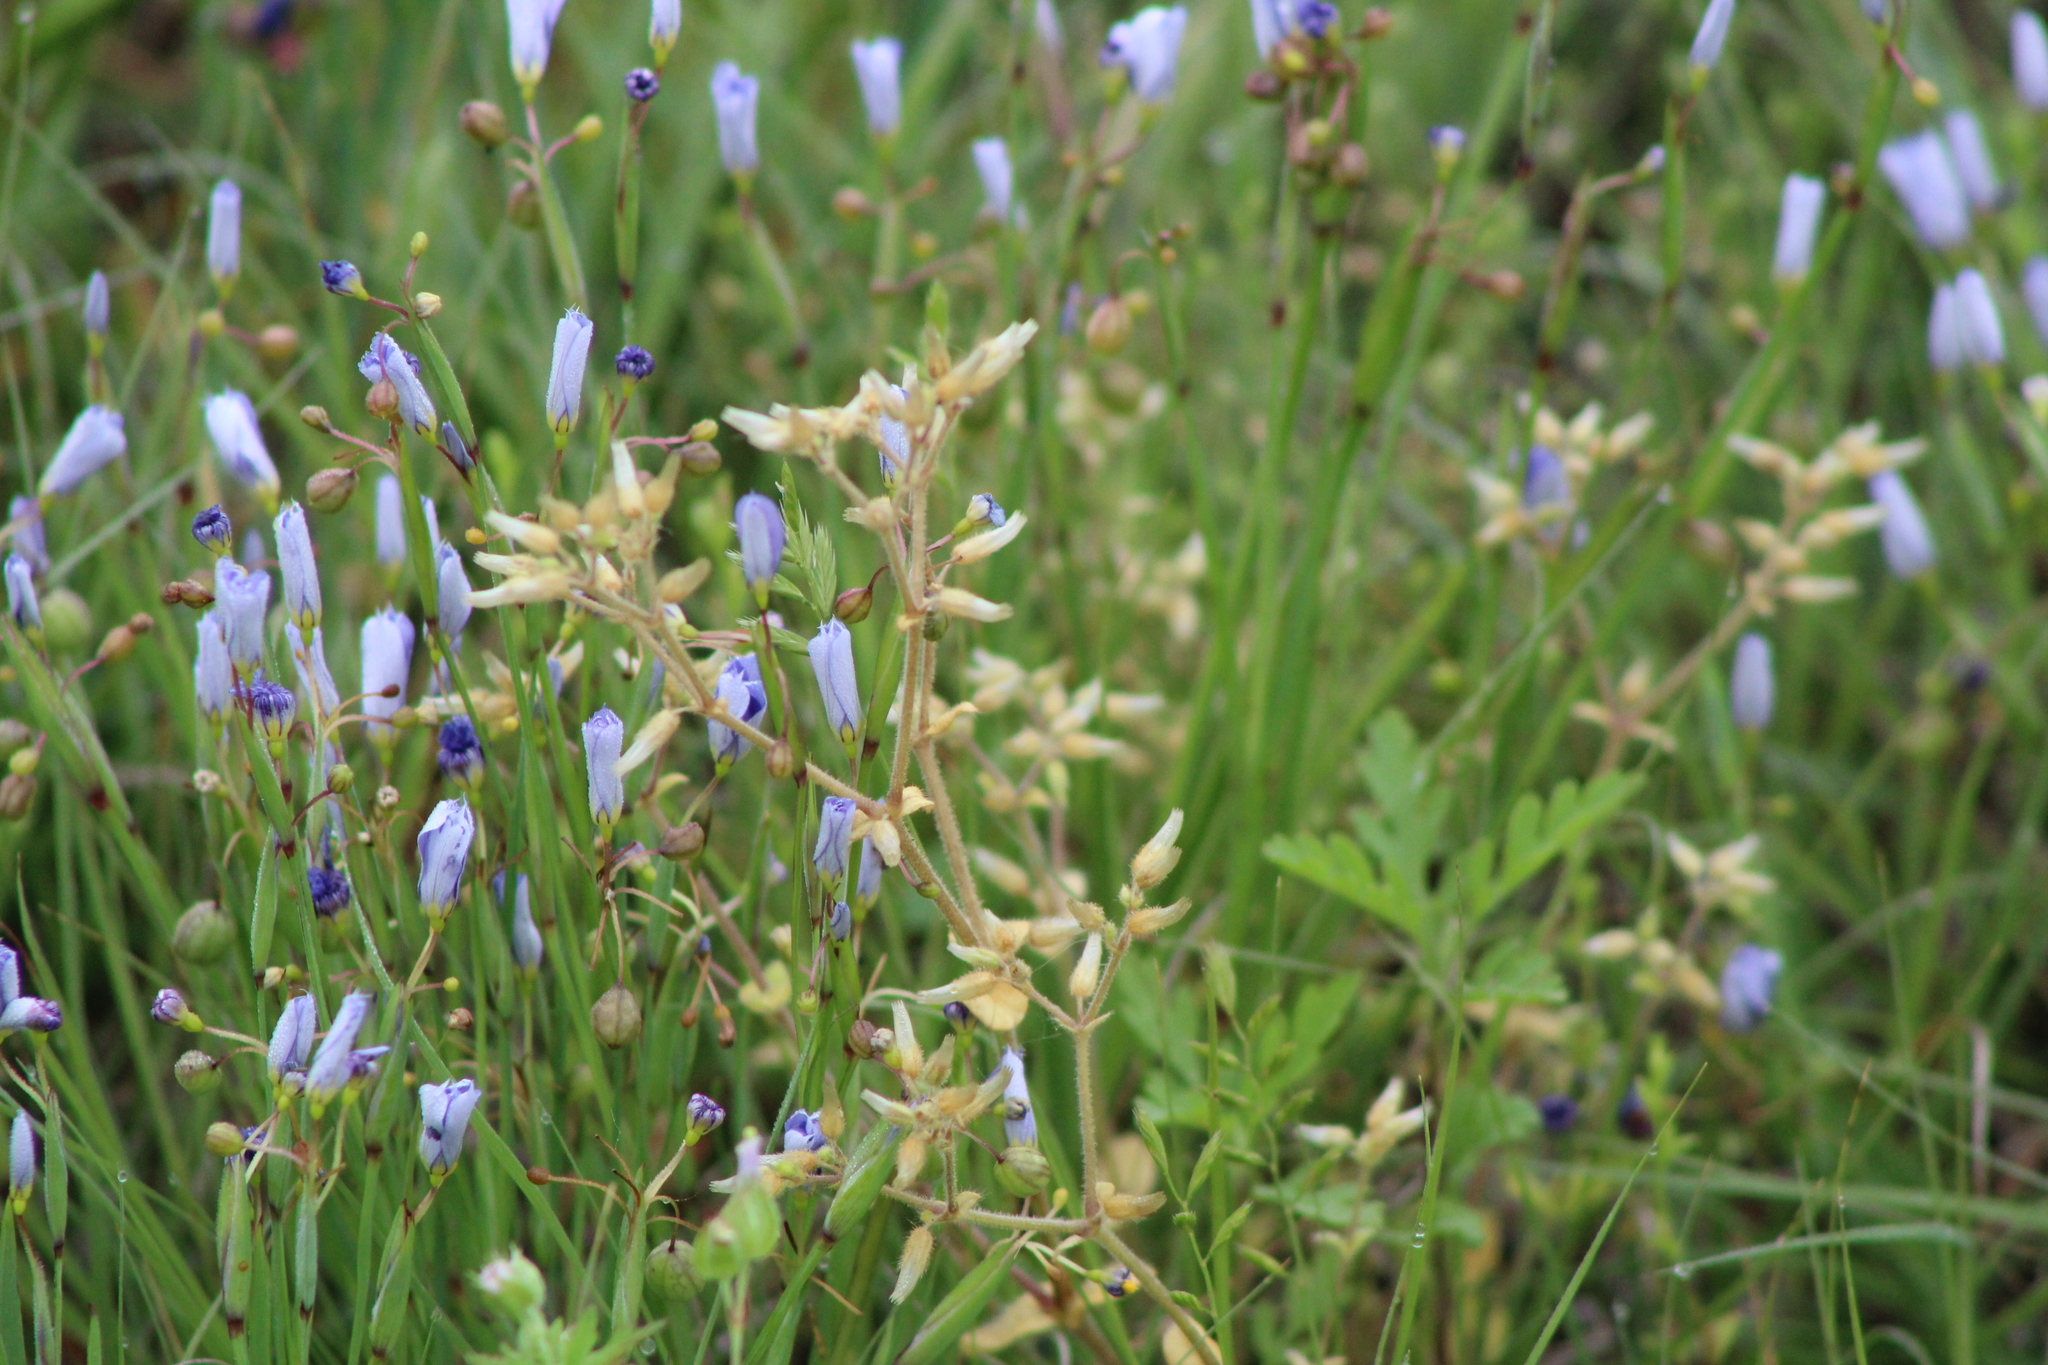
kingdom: Plantae
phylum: Tracheophyta
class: Magnoliopsida
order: Caryophyllales
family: Caryophyllaceae
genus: Cerastium
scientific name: Cerastium glomeratum
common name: Sticky chickweed
